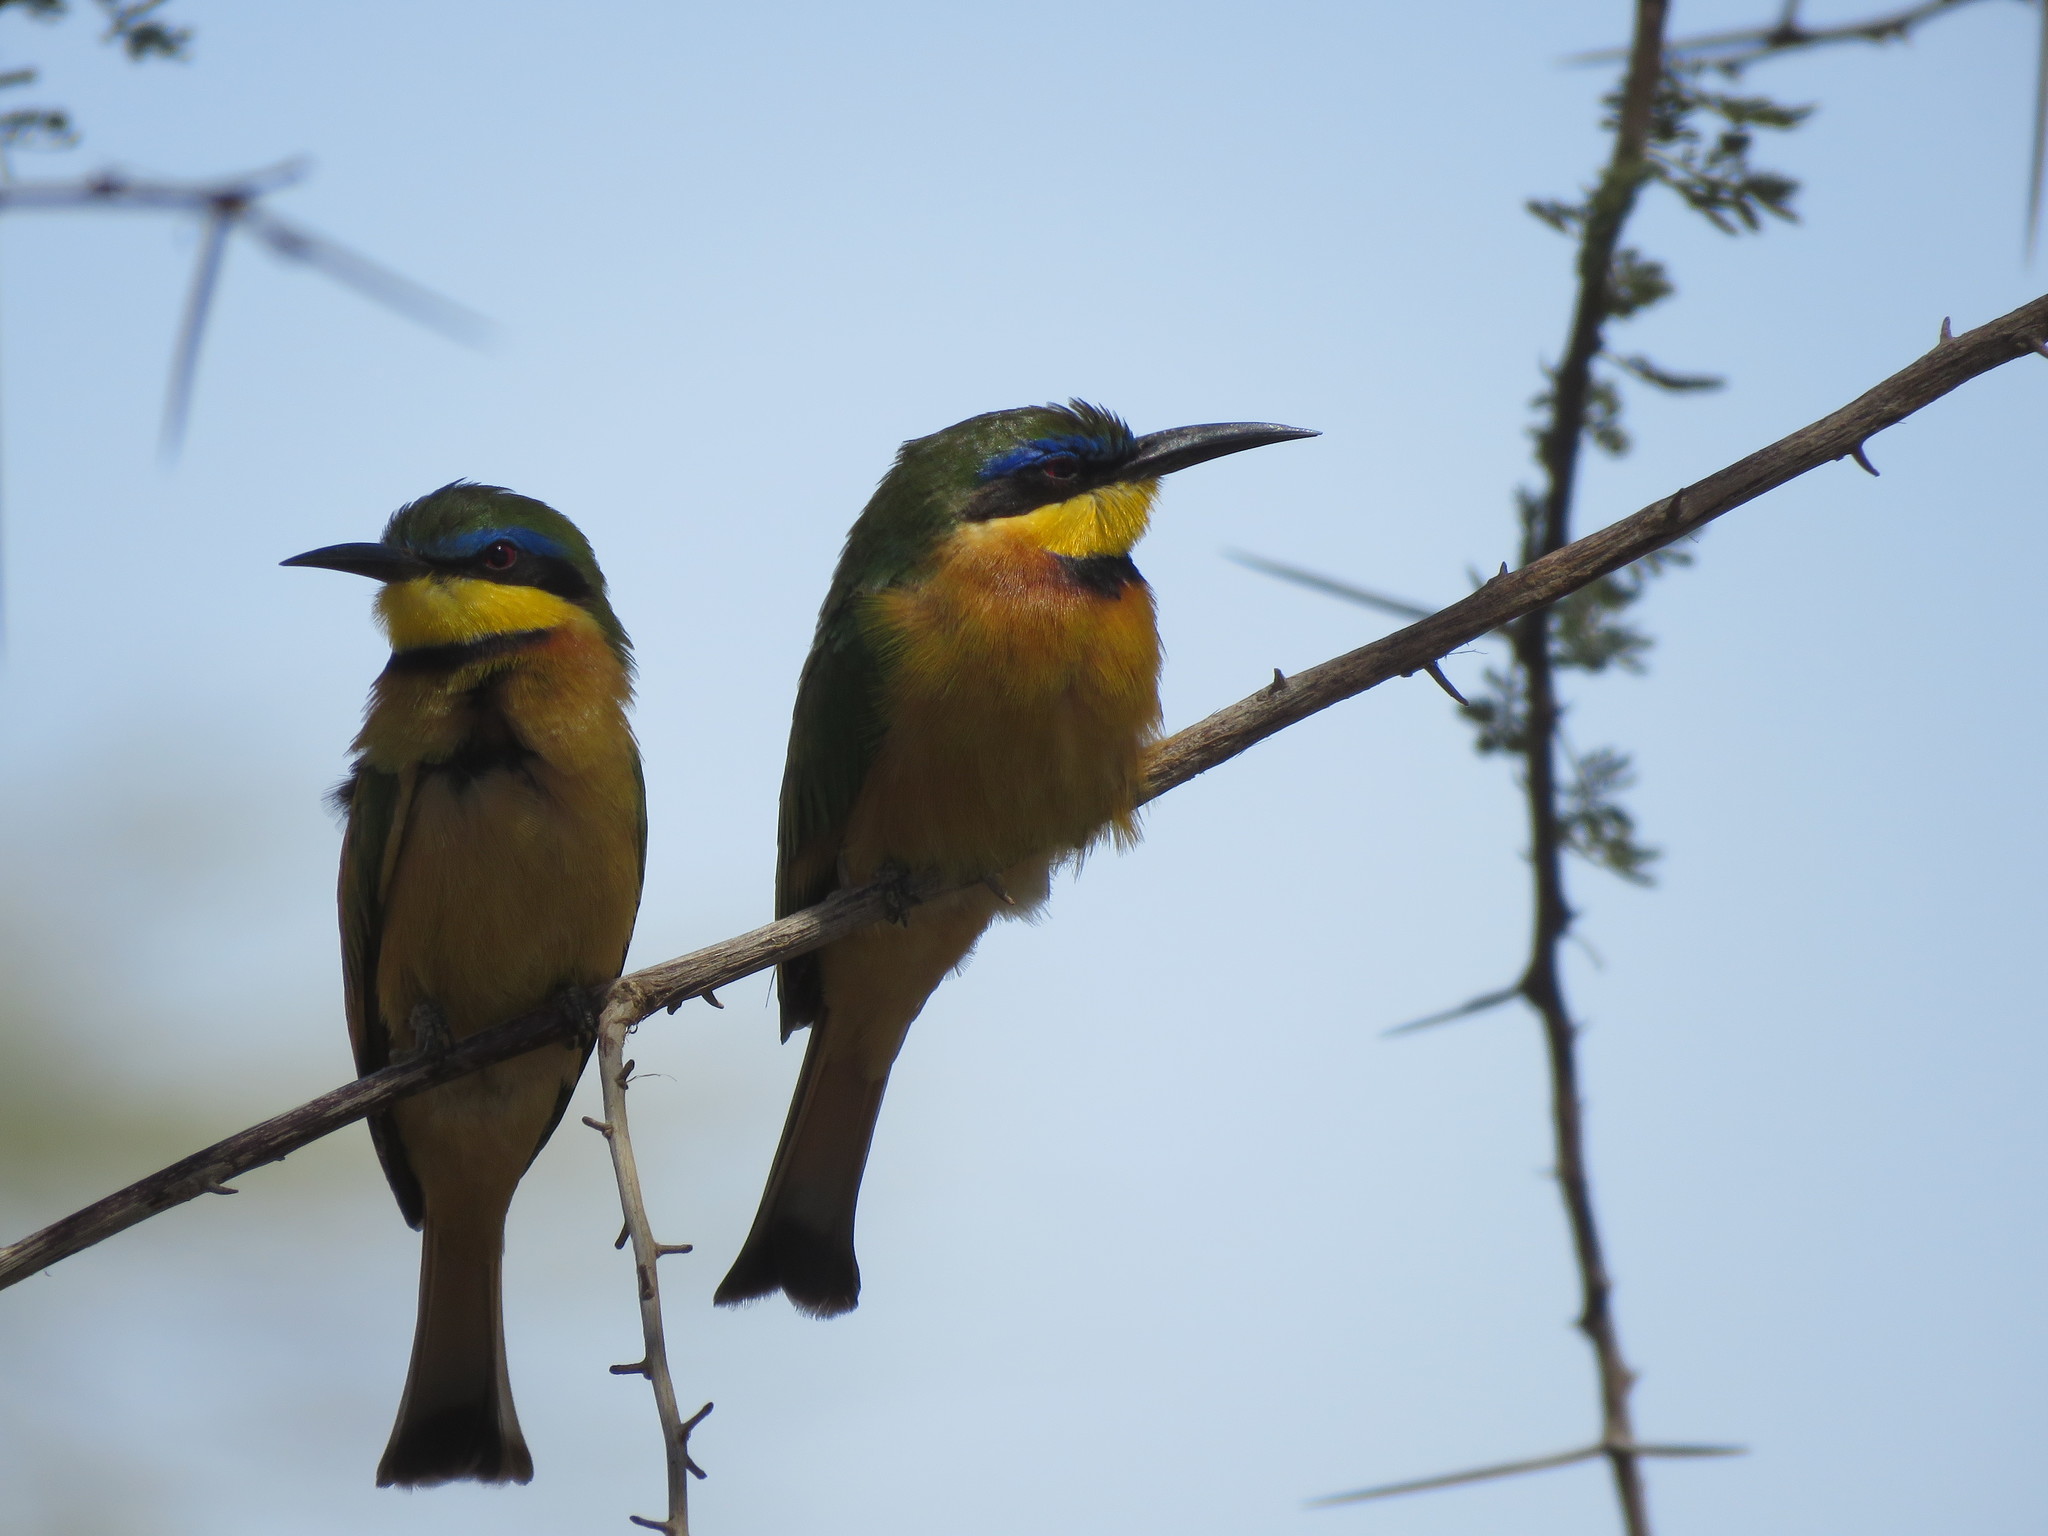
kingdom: Animalia
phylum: Chordata
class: Aves
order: Coraciiformes
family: Meropidae
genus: Merops
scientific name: Merops pusillus
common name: Little bee-eater
